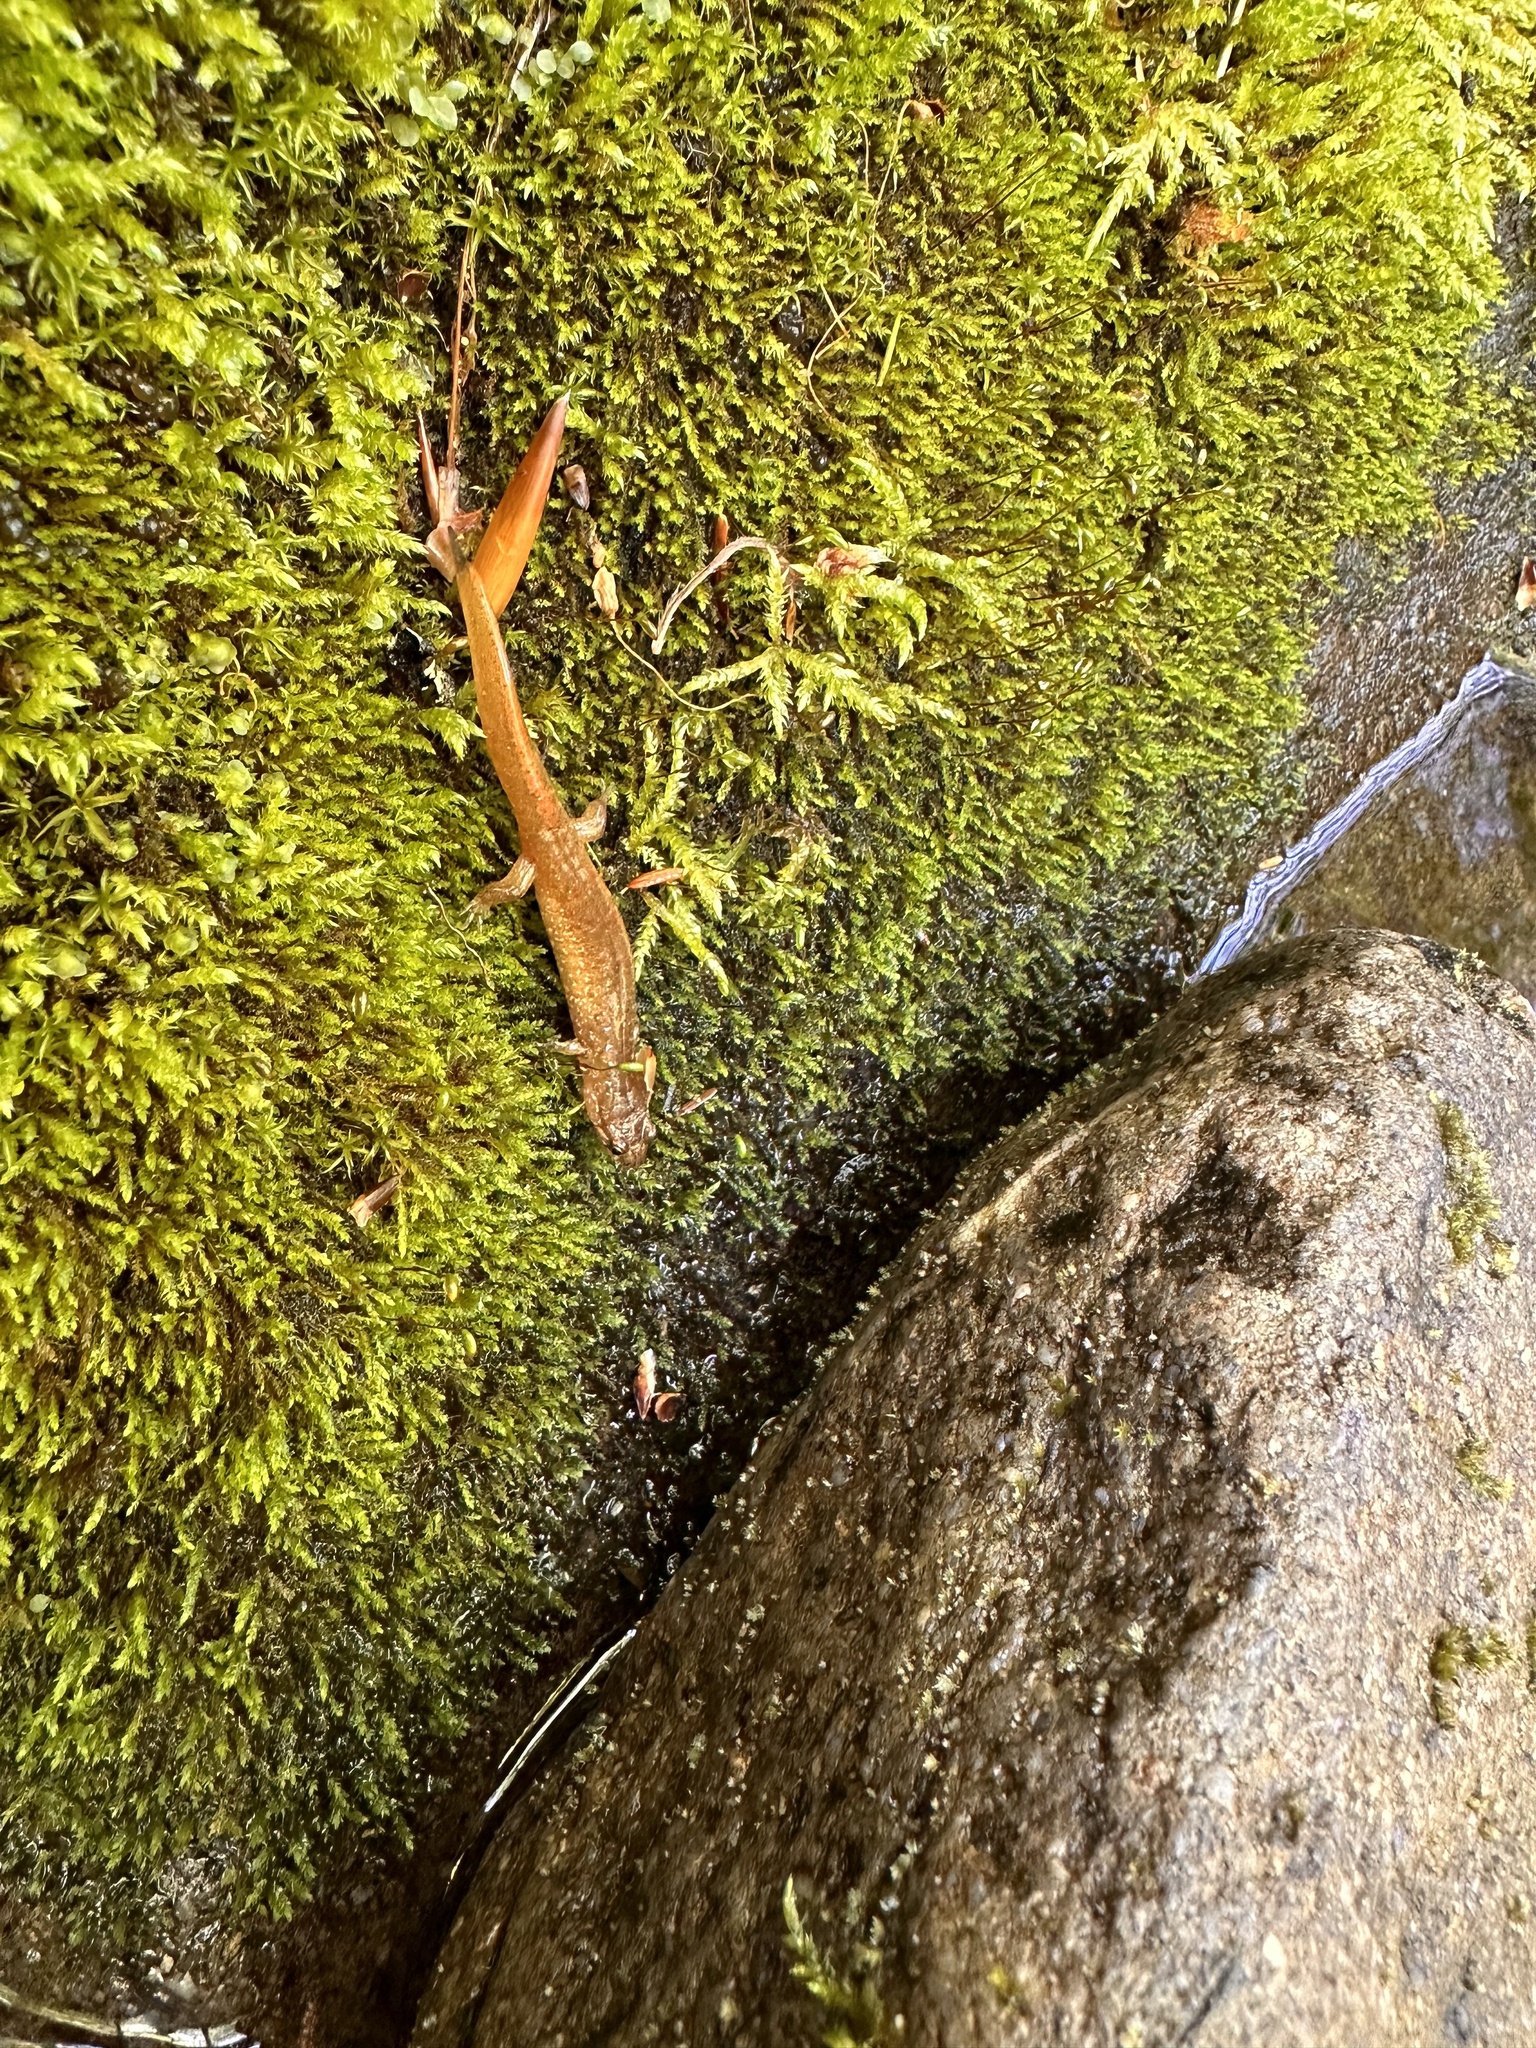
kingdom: Animalia
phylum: Chordata
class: Amphibia
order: Caudata
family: Plethodontidae
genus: Desmognathus
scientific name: Desmognathus santeetlah
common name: Santeetlah dusky salamander
